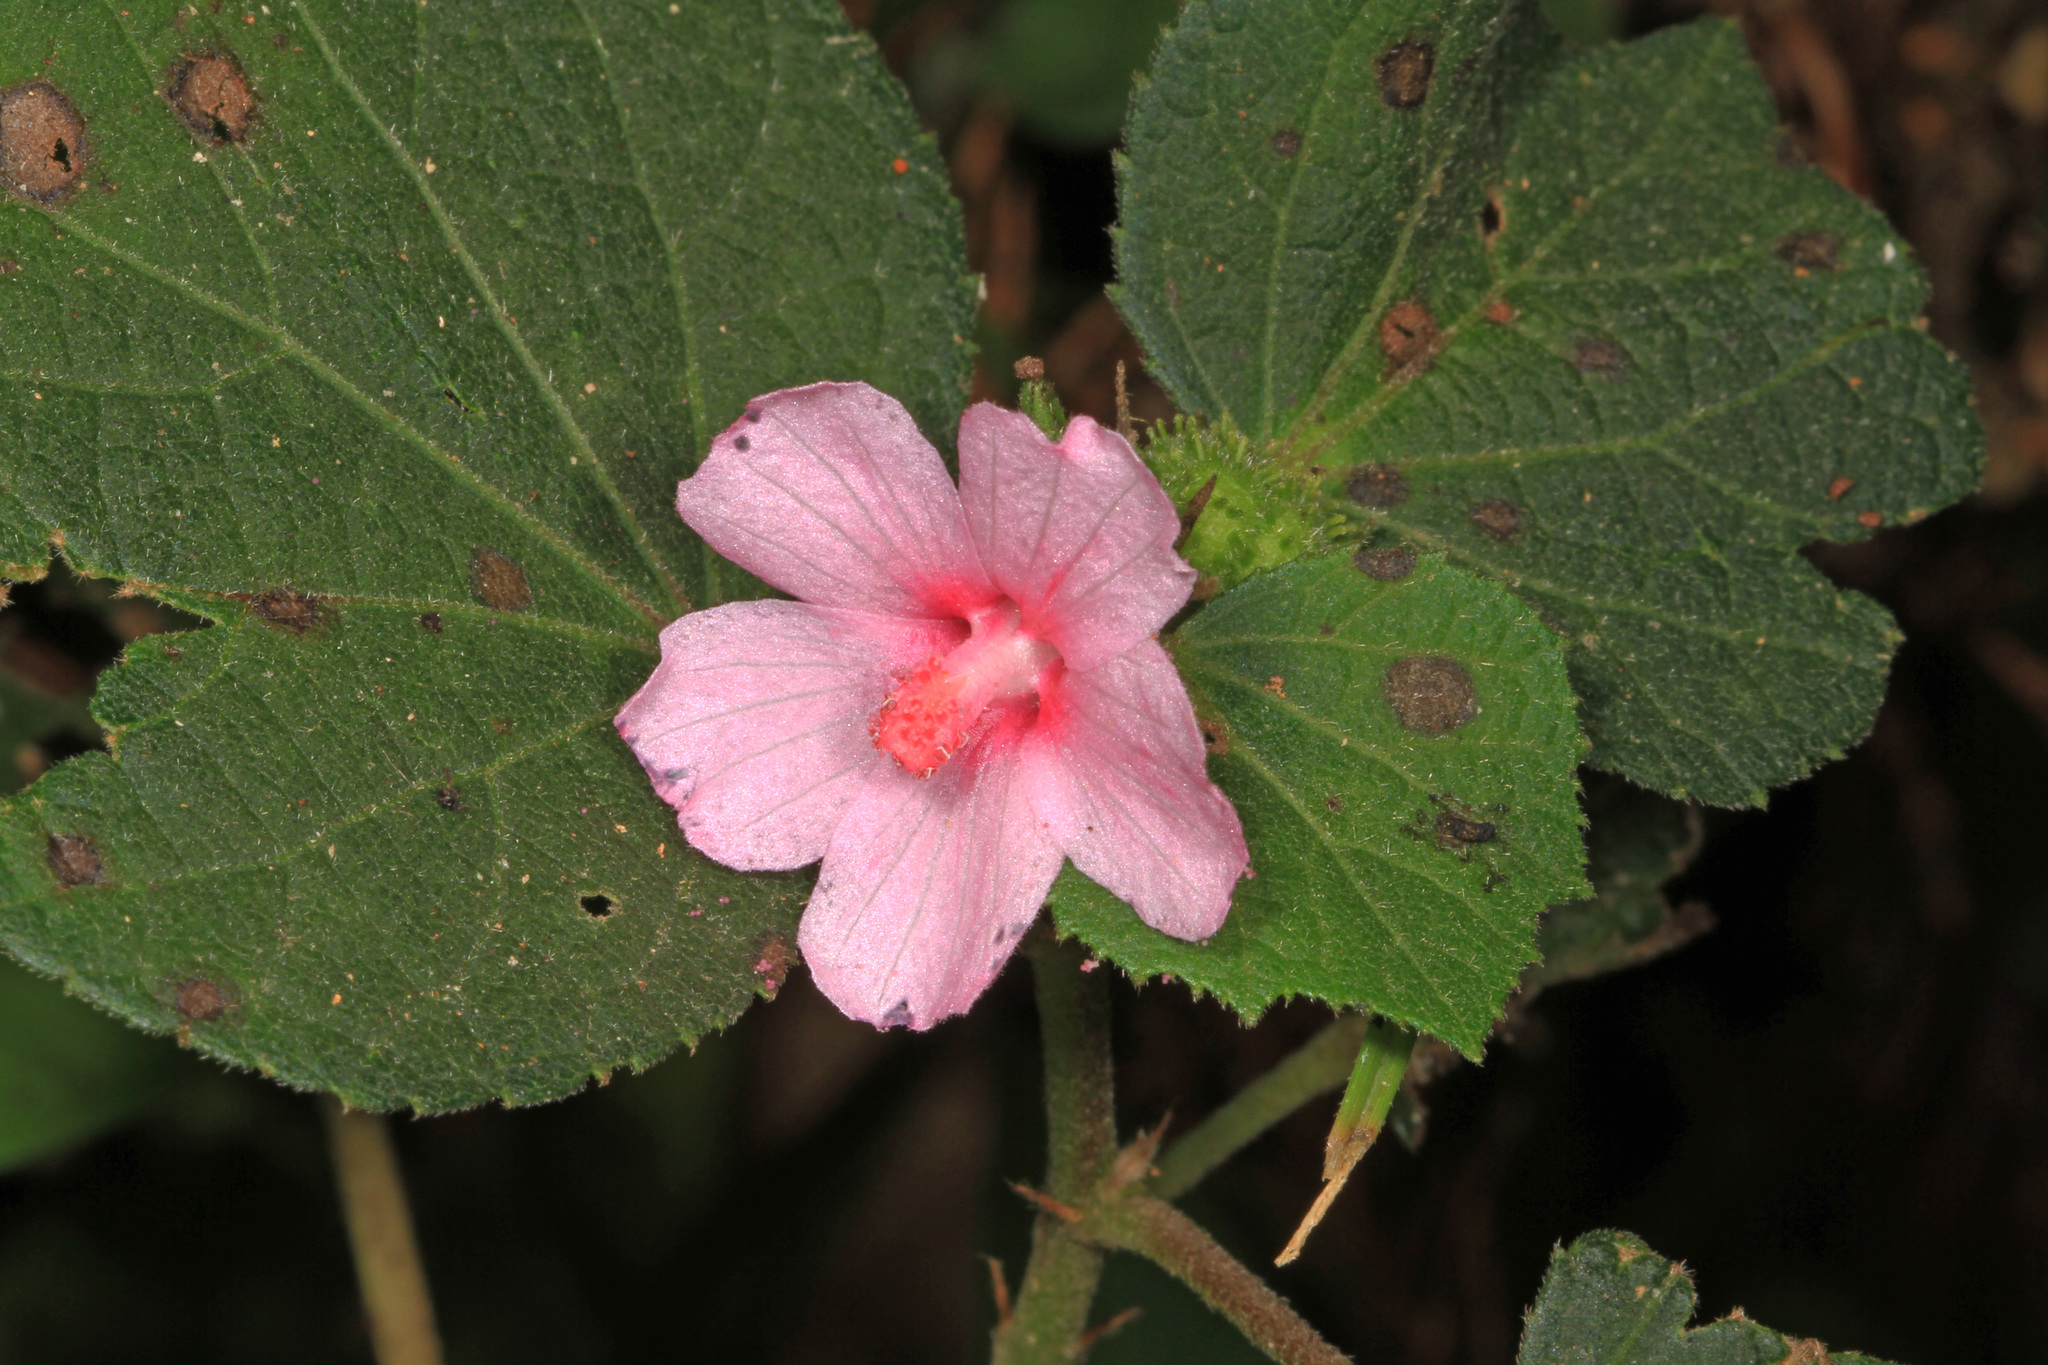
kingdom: Plantae
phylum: Tracheophyta
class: Magnoliopsida
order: Malvales
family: Malvaceae
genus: Urena
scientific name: Urena lobata
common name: Caesarweed
